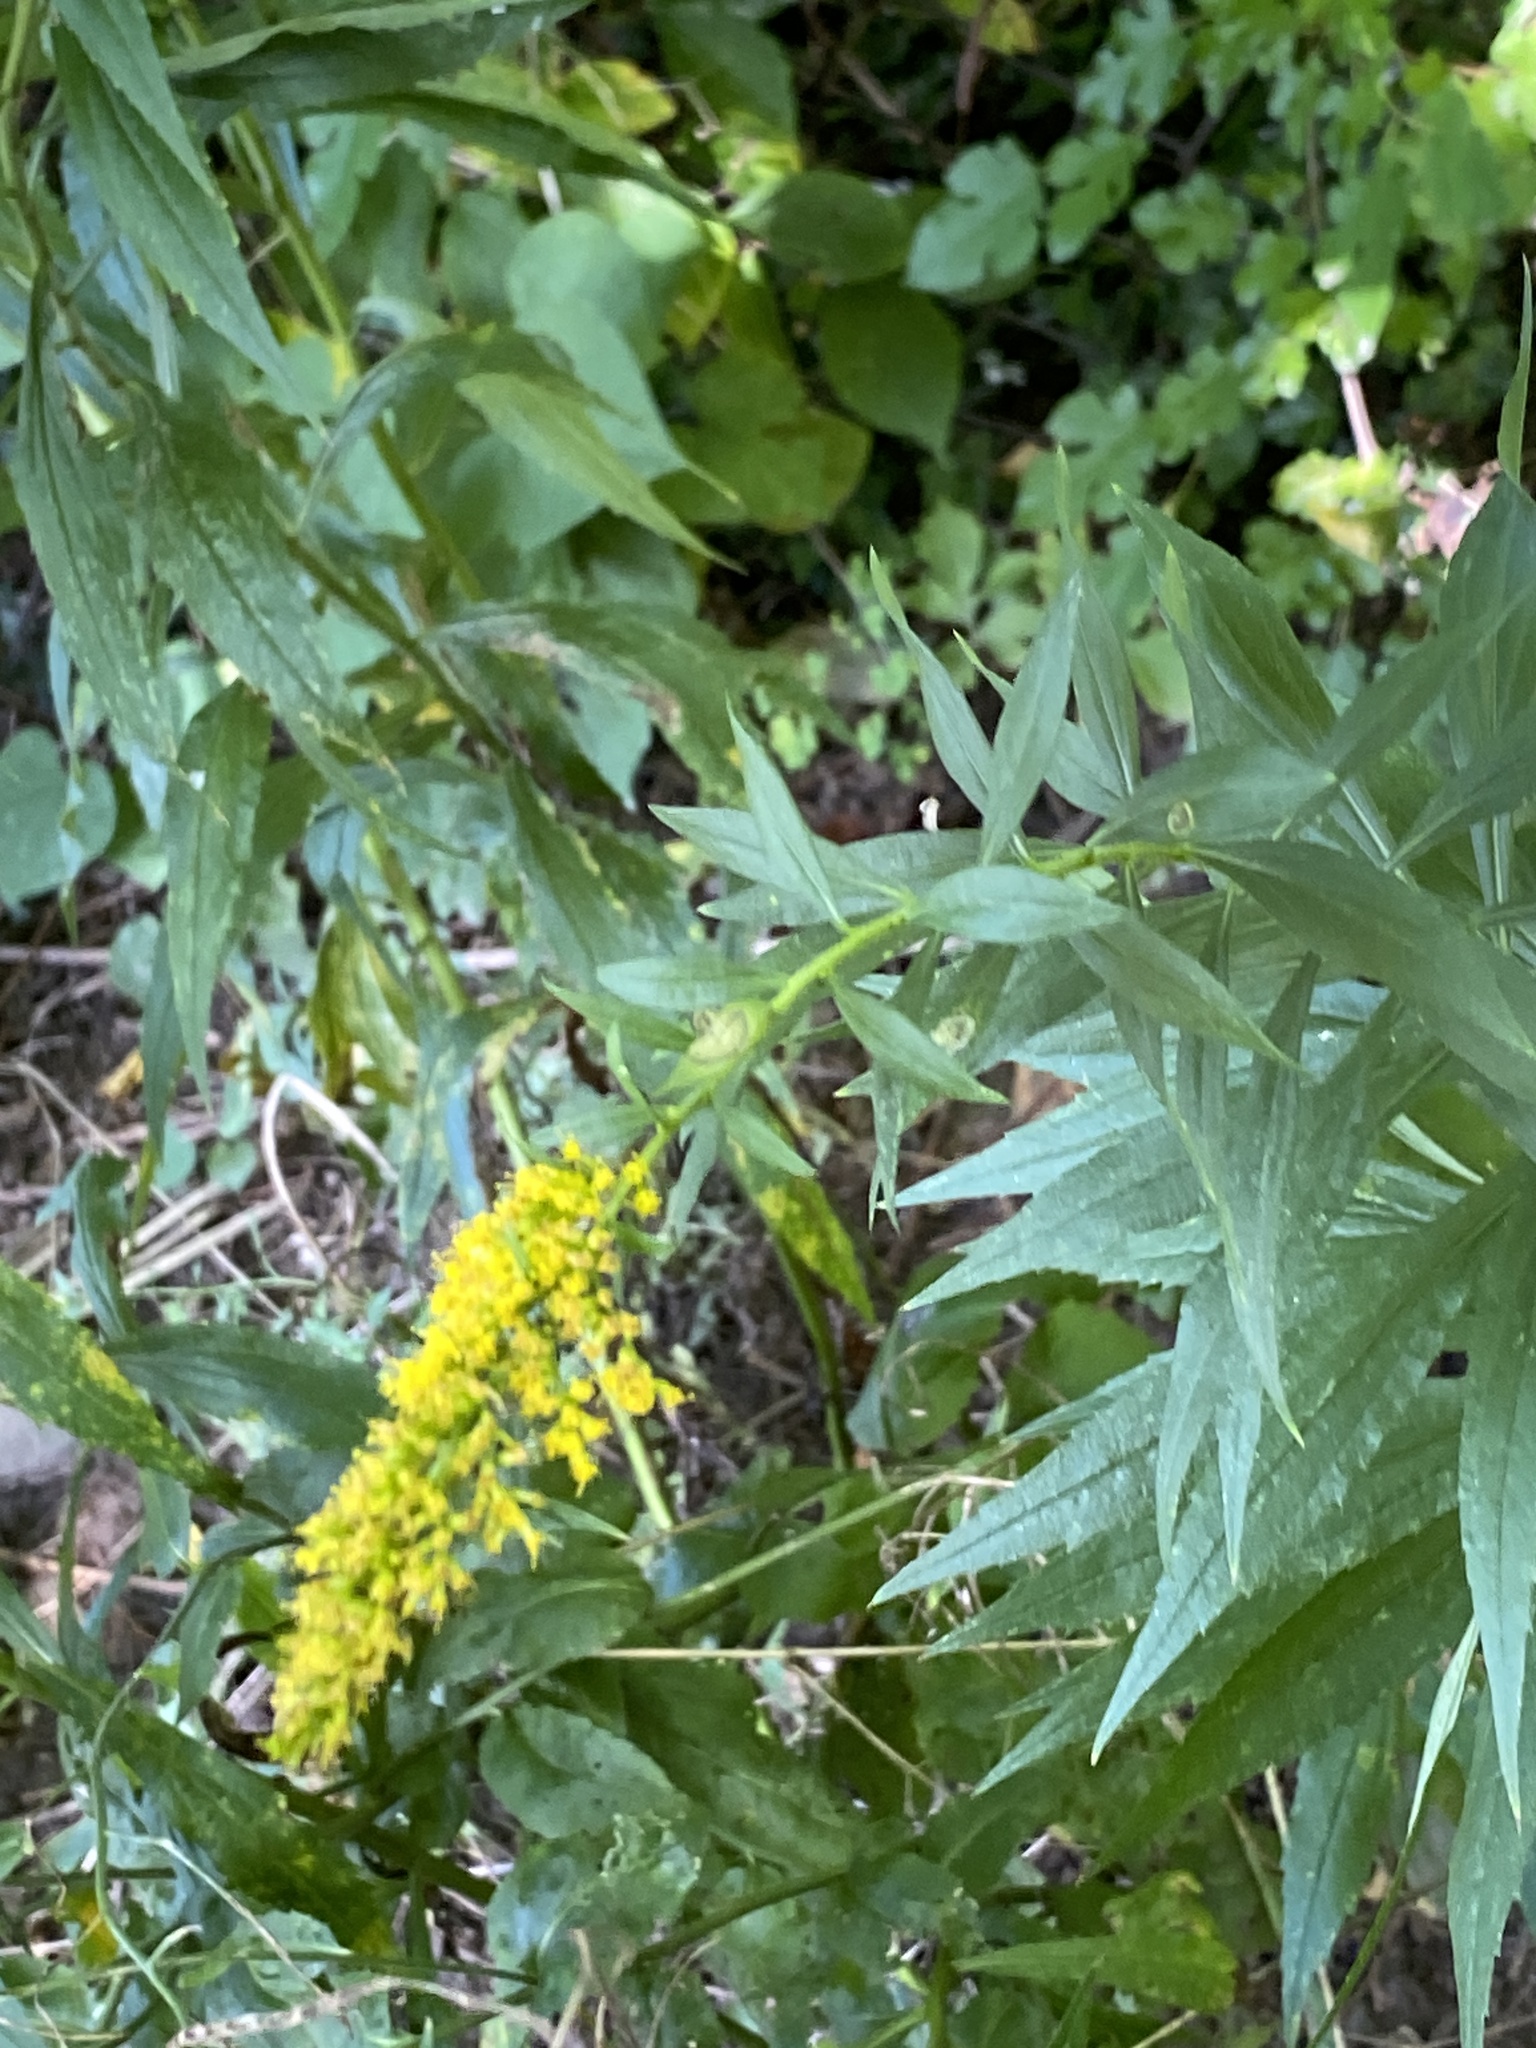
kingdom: Plantae
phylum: Tracheophyta
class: Magnoliopsida
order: Asterales
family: Asteraceae
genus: Solidago
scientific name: Solidago altissima
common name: Late goldenrod
